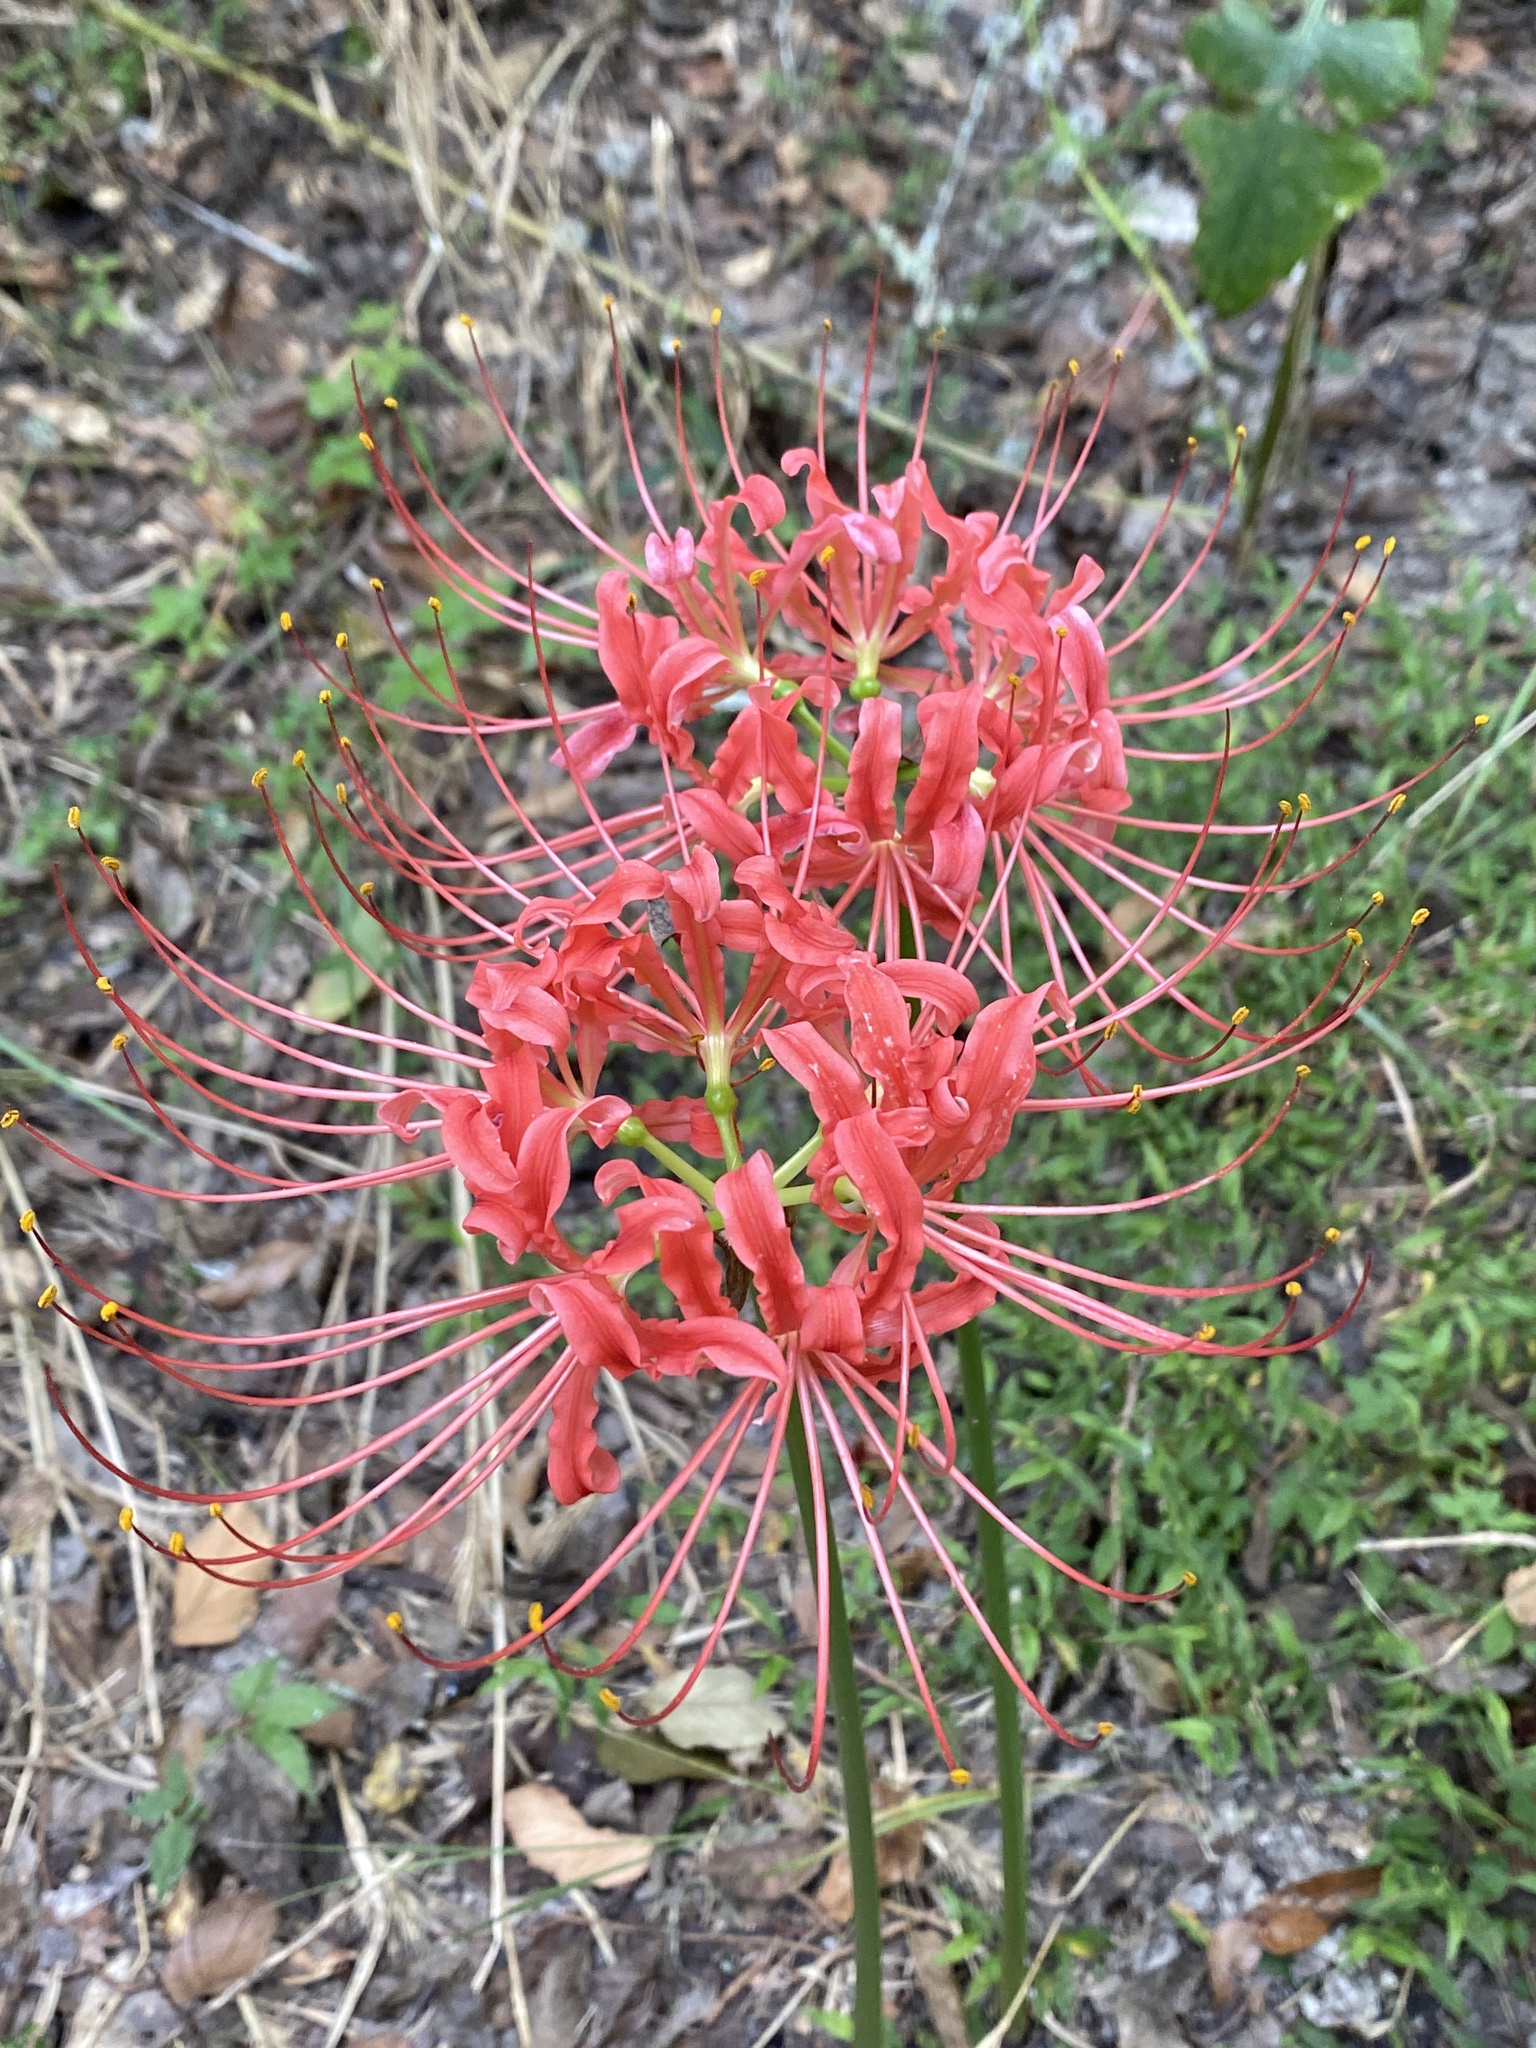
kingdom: Plantae
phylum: Tracheophyta
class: Liliopsida
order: Asparagales
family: Amaryllidaceae
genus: Lycoris
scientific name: Lycoris radiata
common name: Red spider lily
